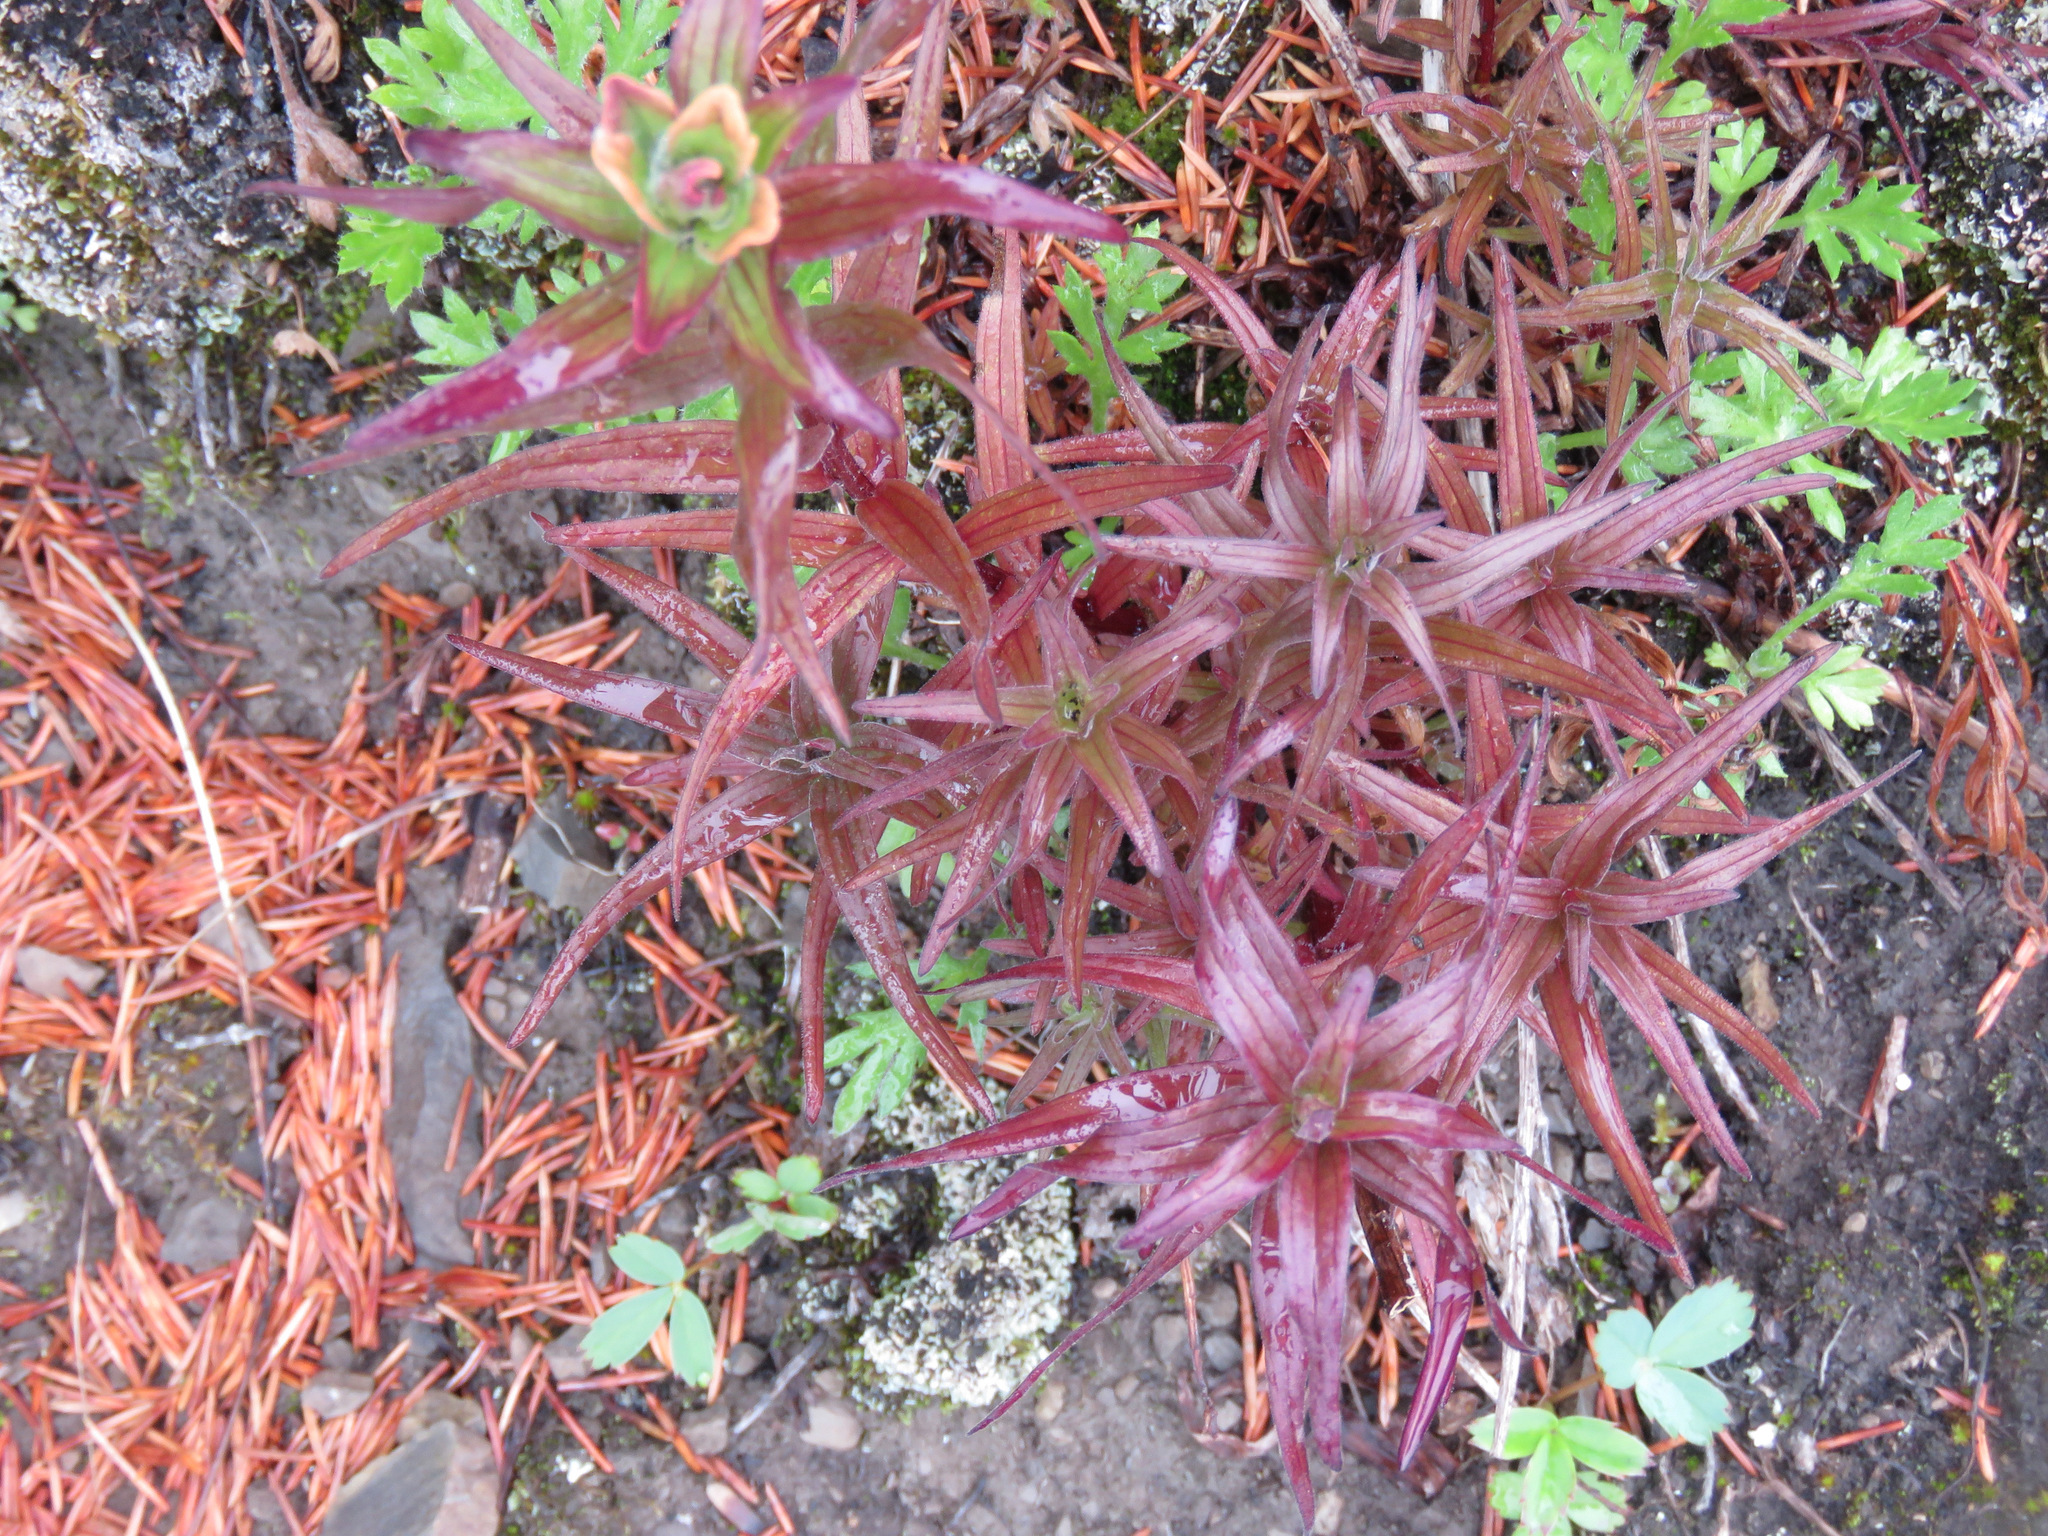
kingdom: Plantae
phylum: Tracheophyta
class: Magnoliopsida
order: Lamiales
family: Orobanchaceae
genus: Castilleja
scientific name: Castilleja miniata
